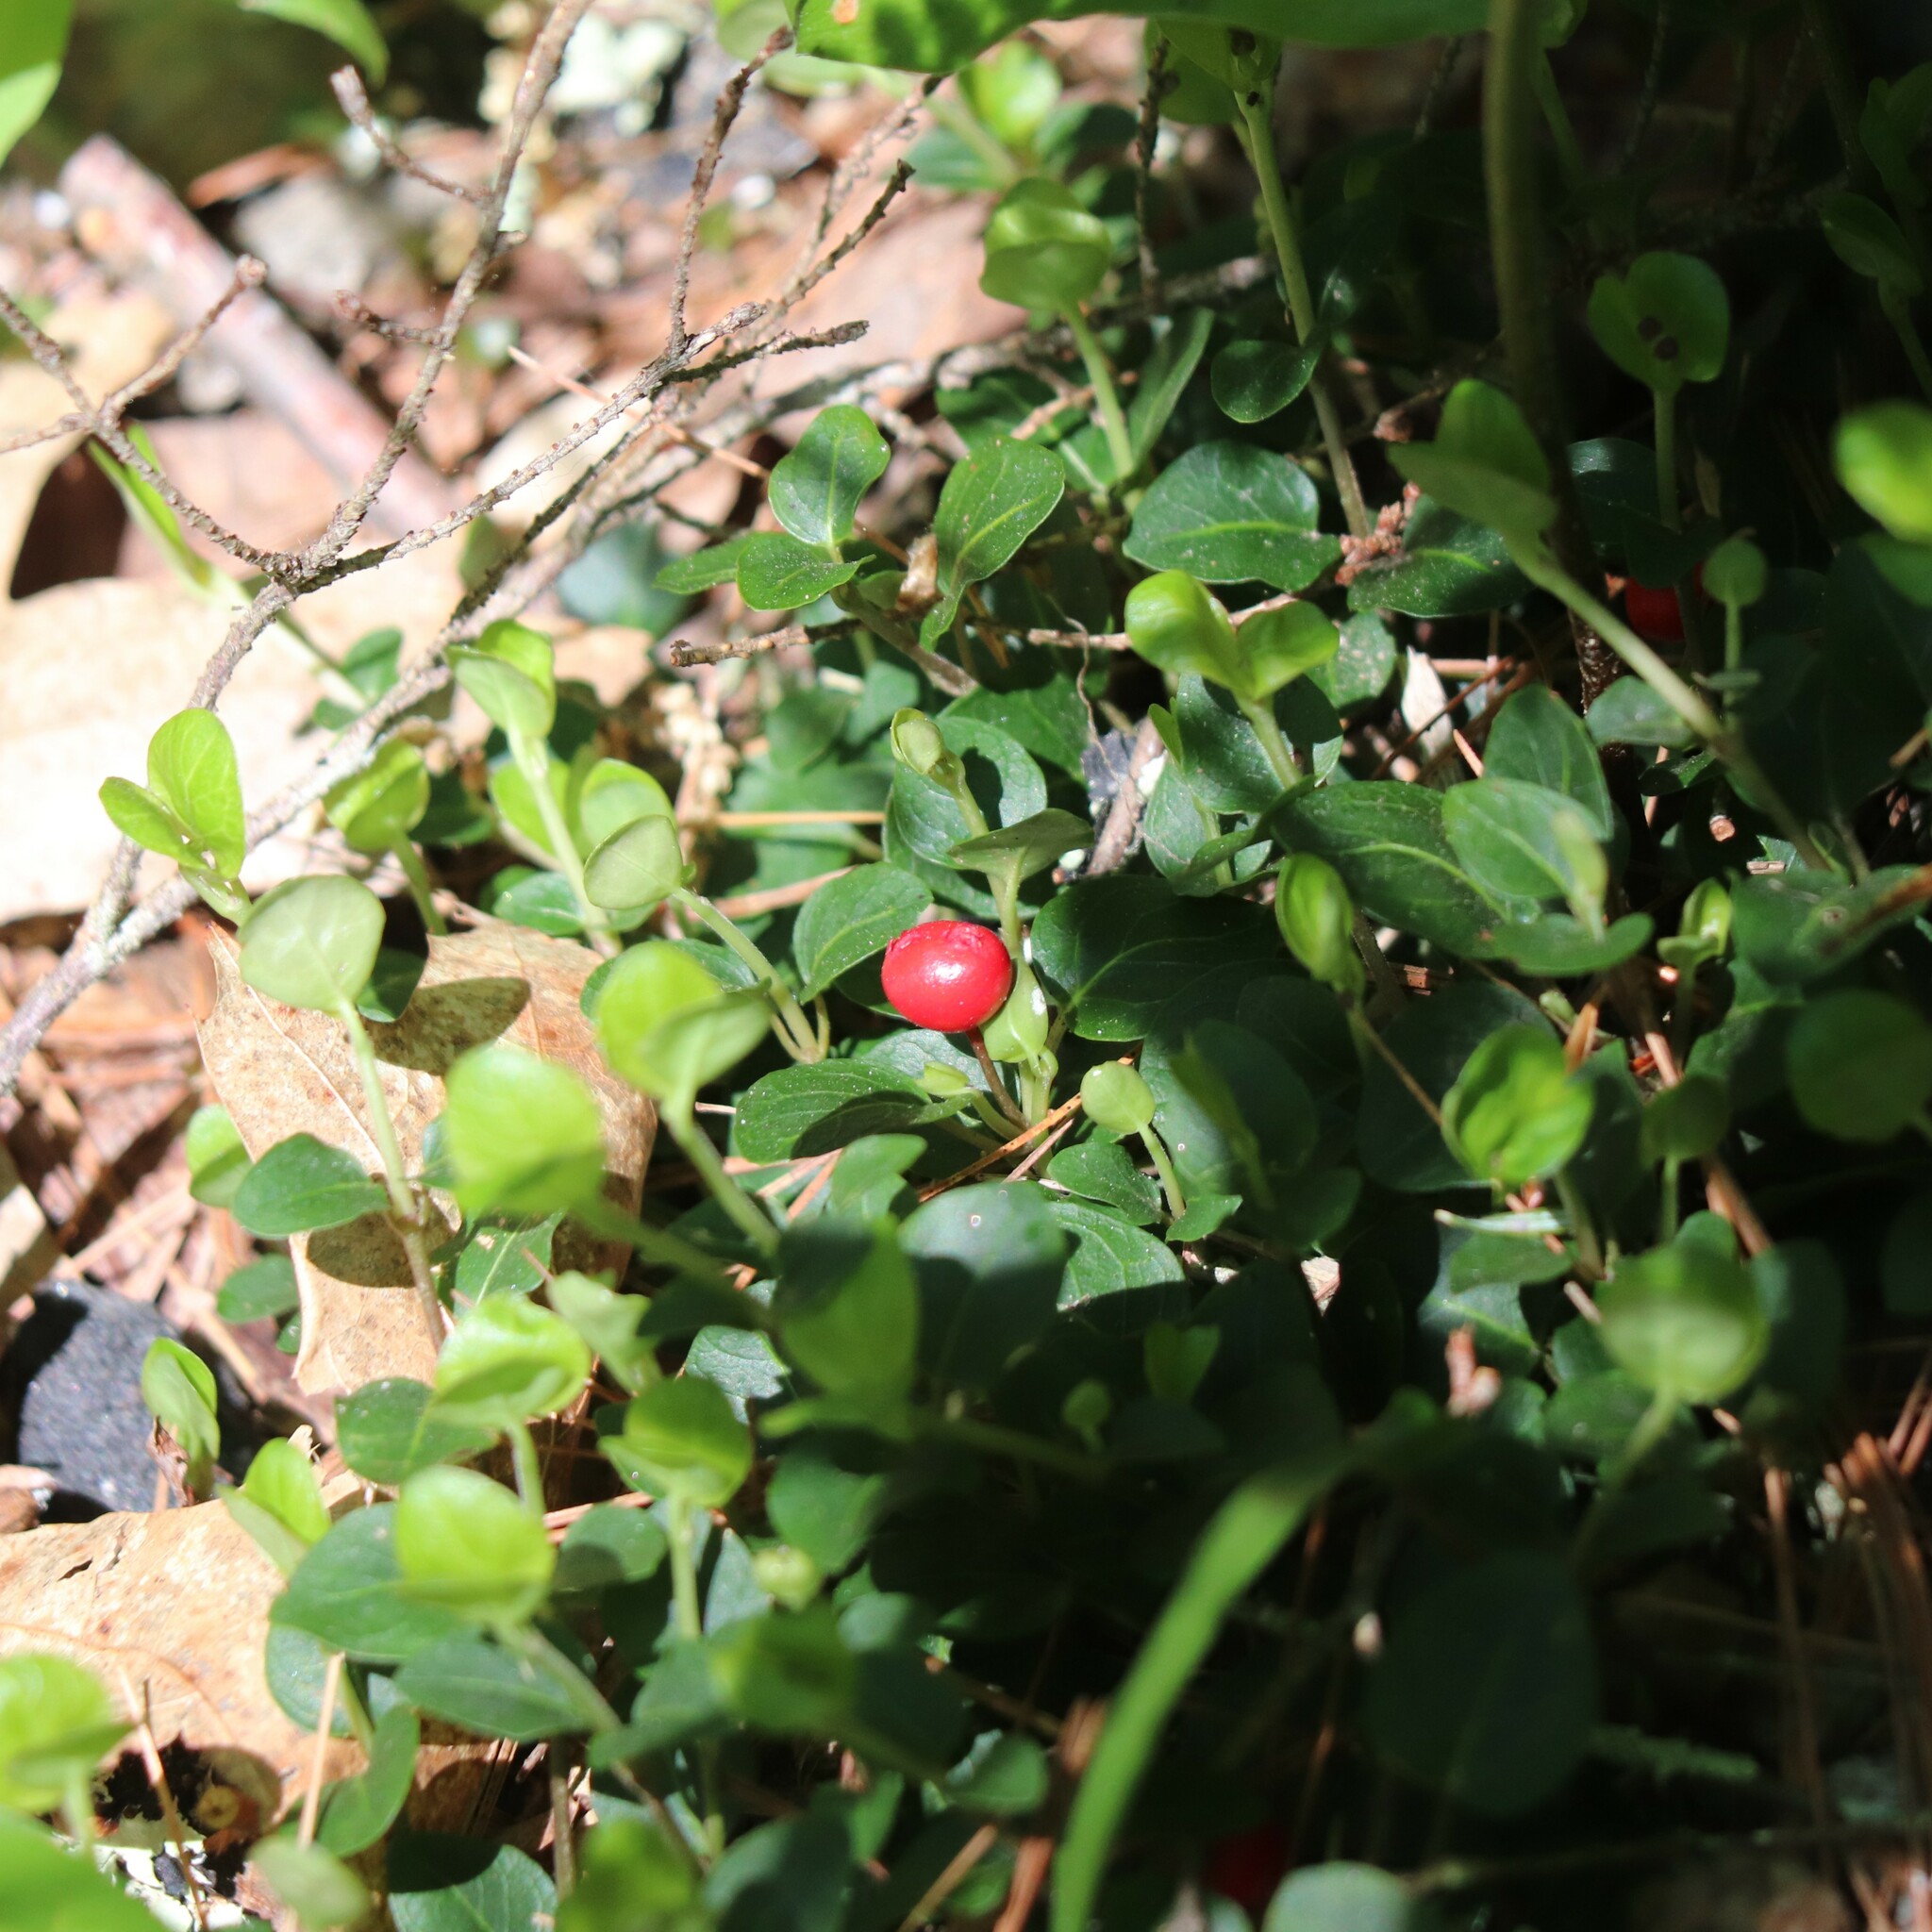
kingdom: Plantae
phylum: Tracheophyta
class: Magnoliopsida
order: Gentianales
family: Rubiaceae
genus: Mitchella
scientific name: Mitchella repens
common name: Partridge-berry
